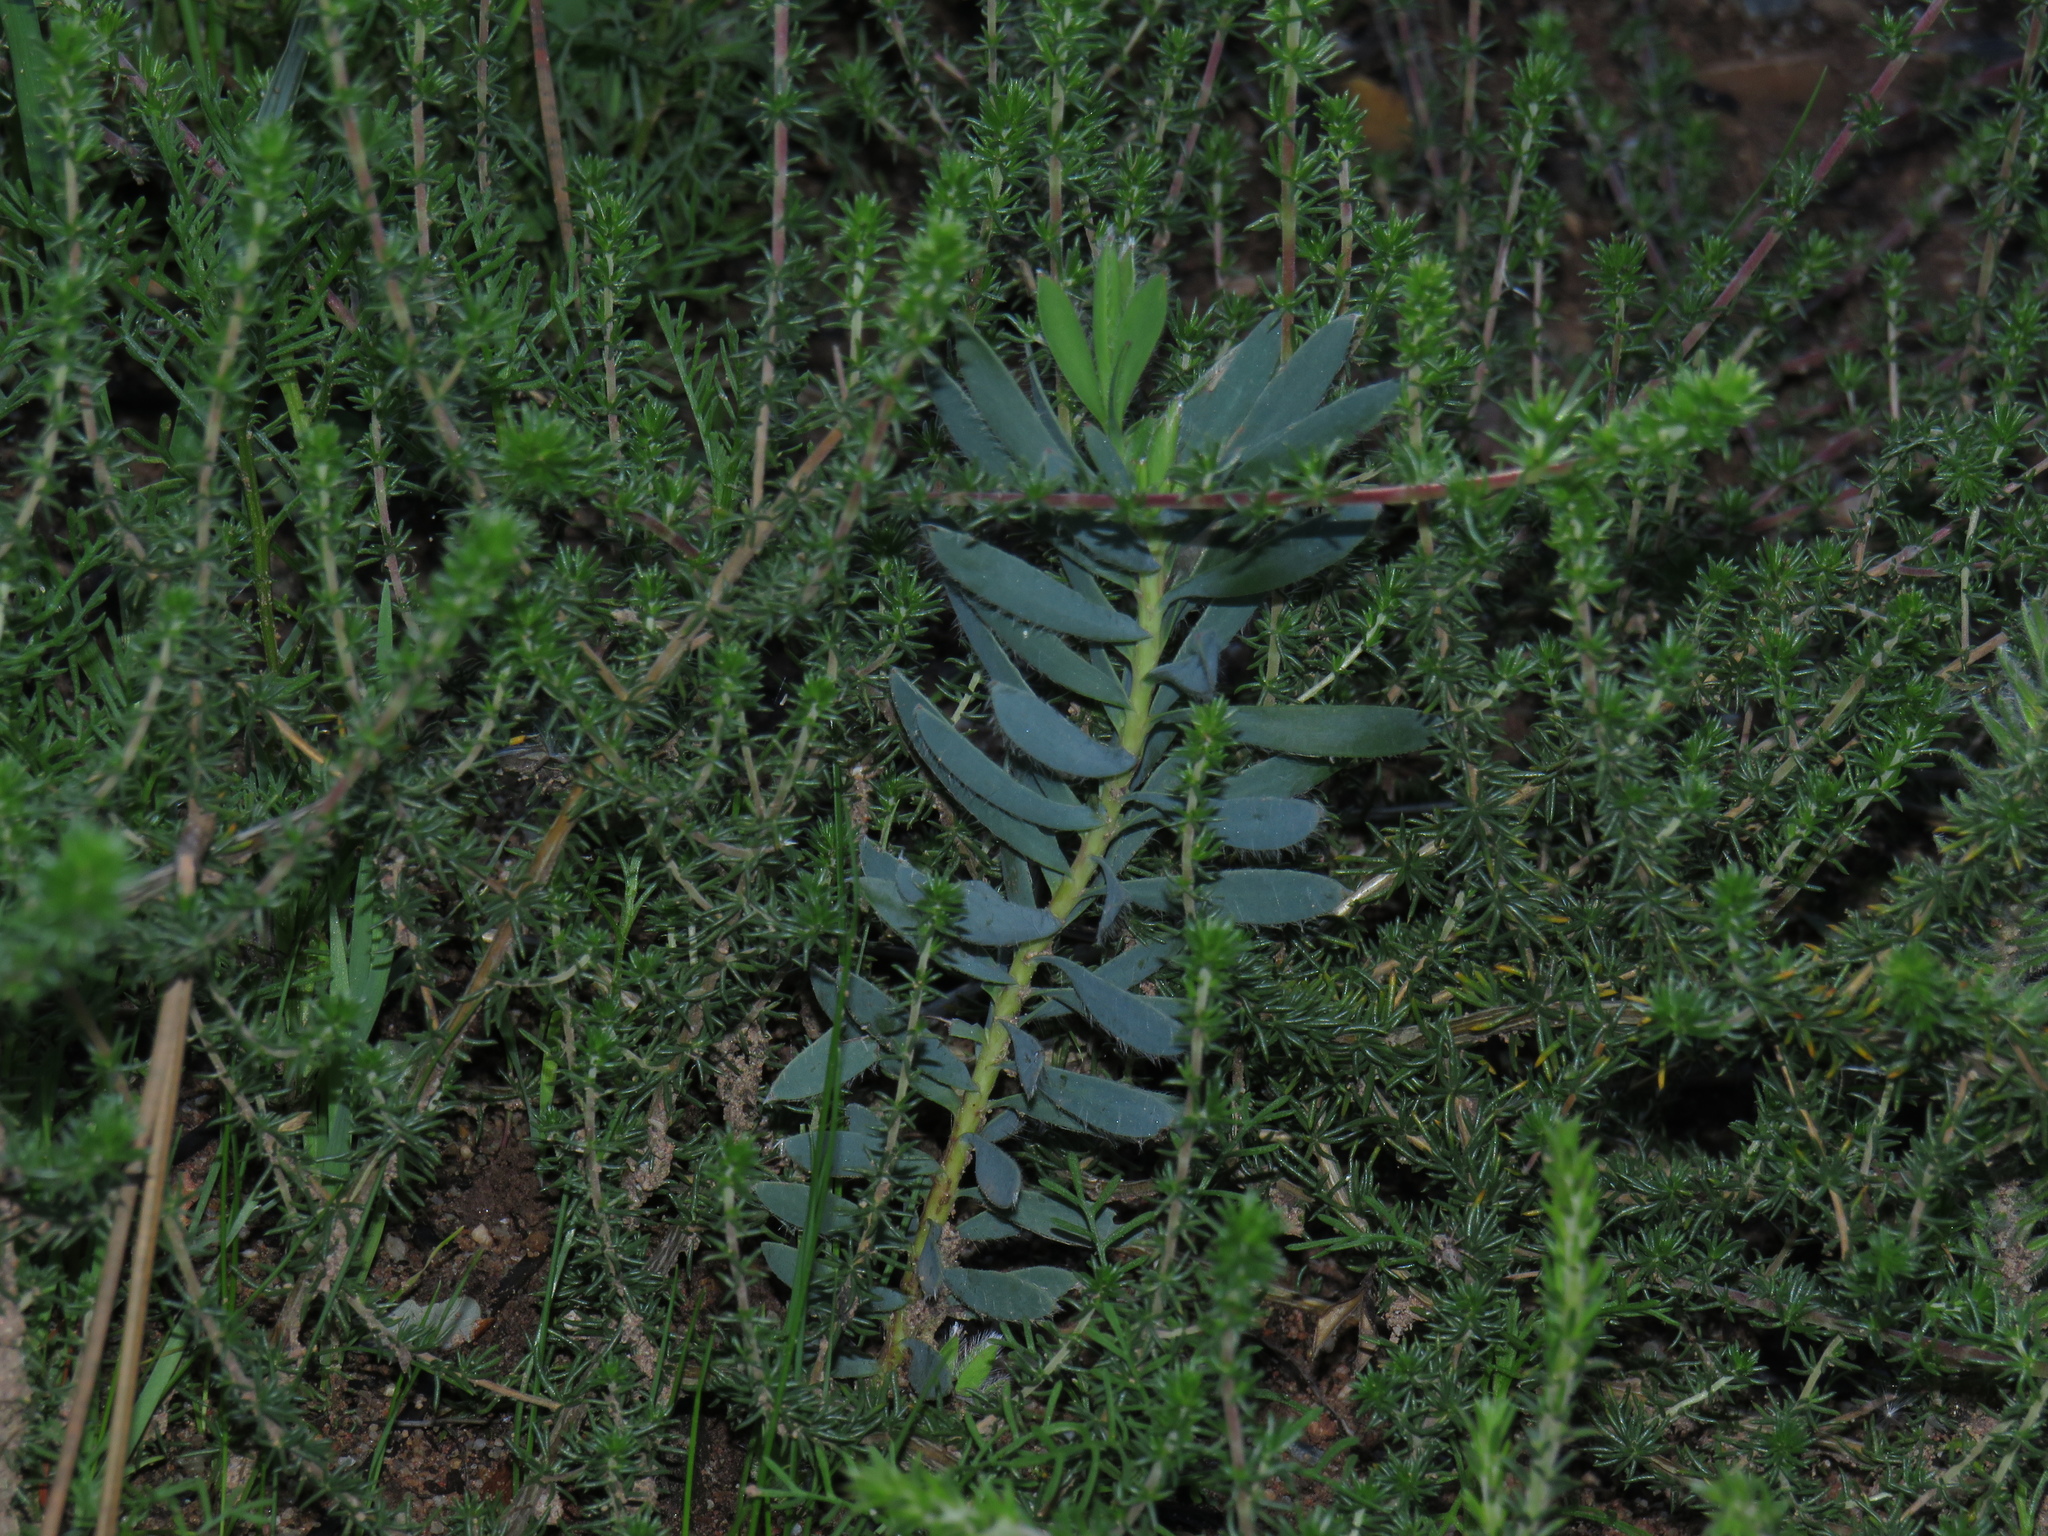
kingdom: Plantae
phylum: Tracheophyta
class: Magnoliopsida
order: Proteales
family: Proteaceae
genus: Leucadendron
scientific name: Leucadendron salignum
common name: Common sunshine conebush
